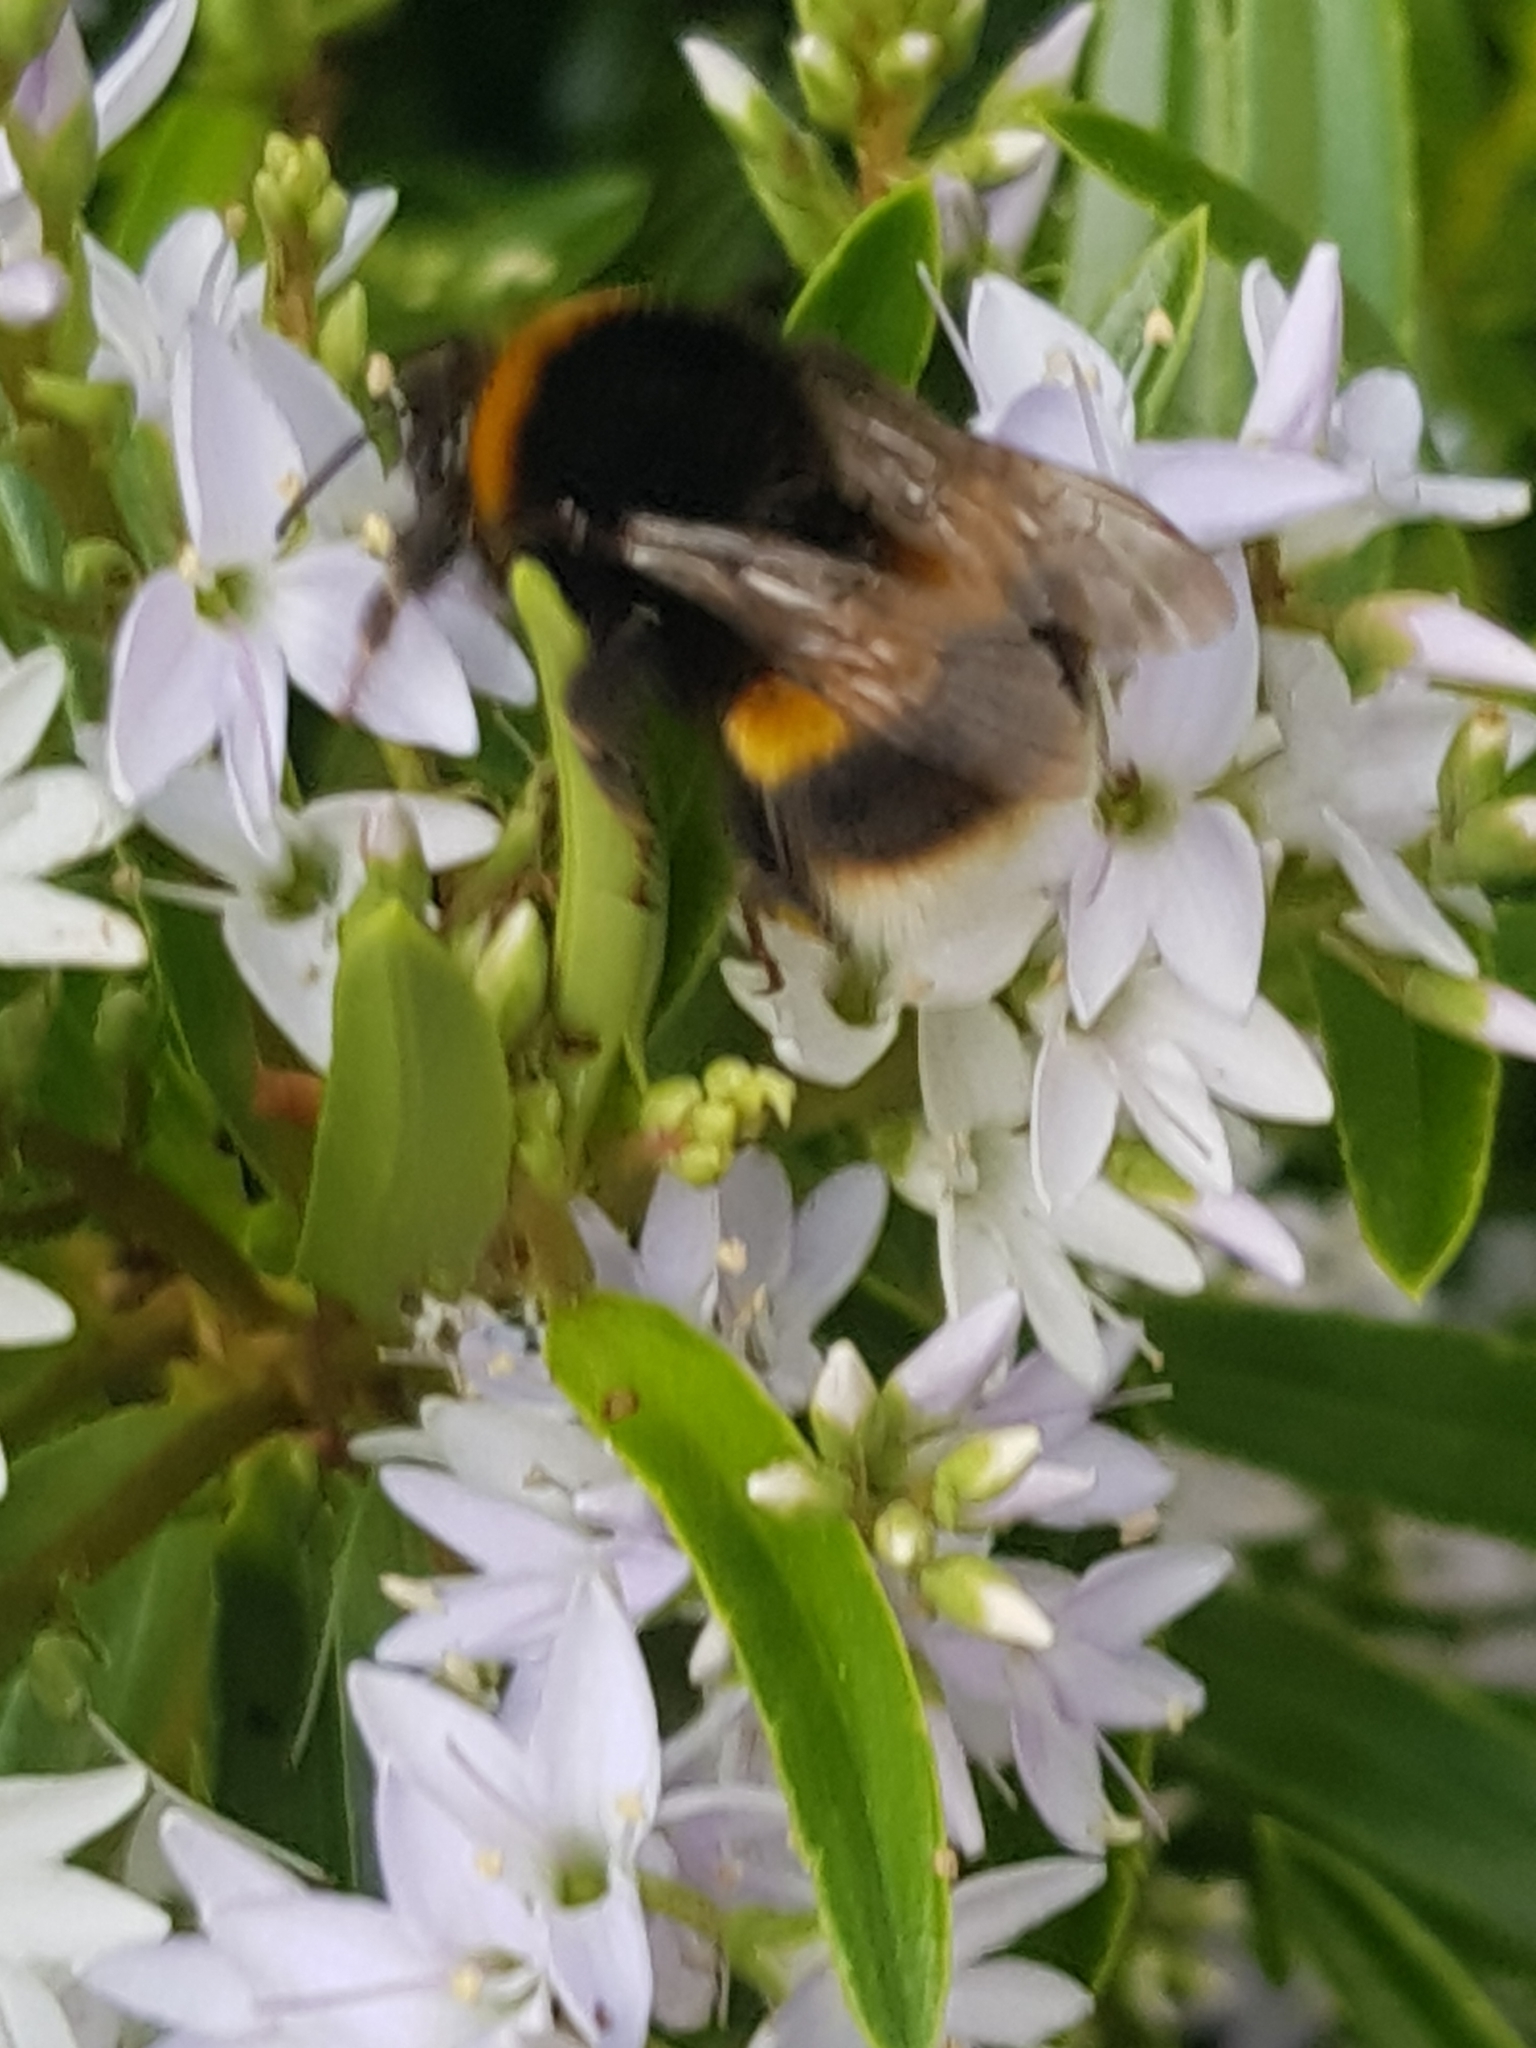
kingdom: Animalia
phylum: Arthropoda
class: Insecta
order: Hymenoptera
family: Apidae
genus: Bombus
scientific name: Bombus terrestris
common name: Buff-tailed bumblebee
